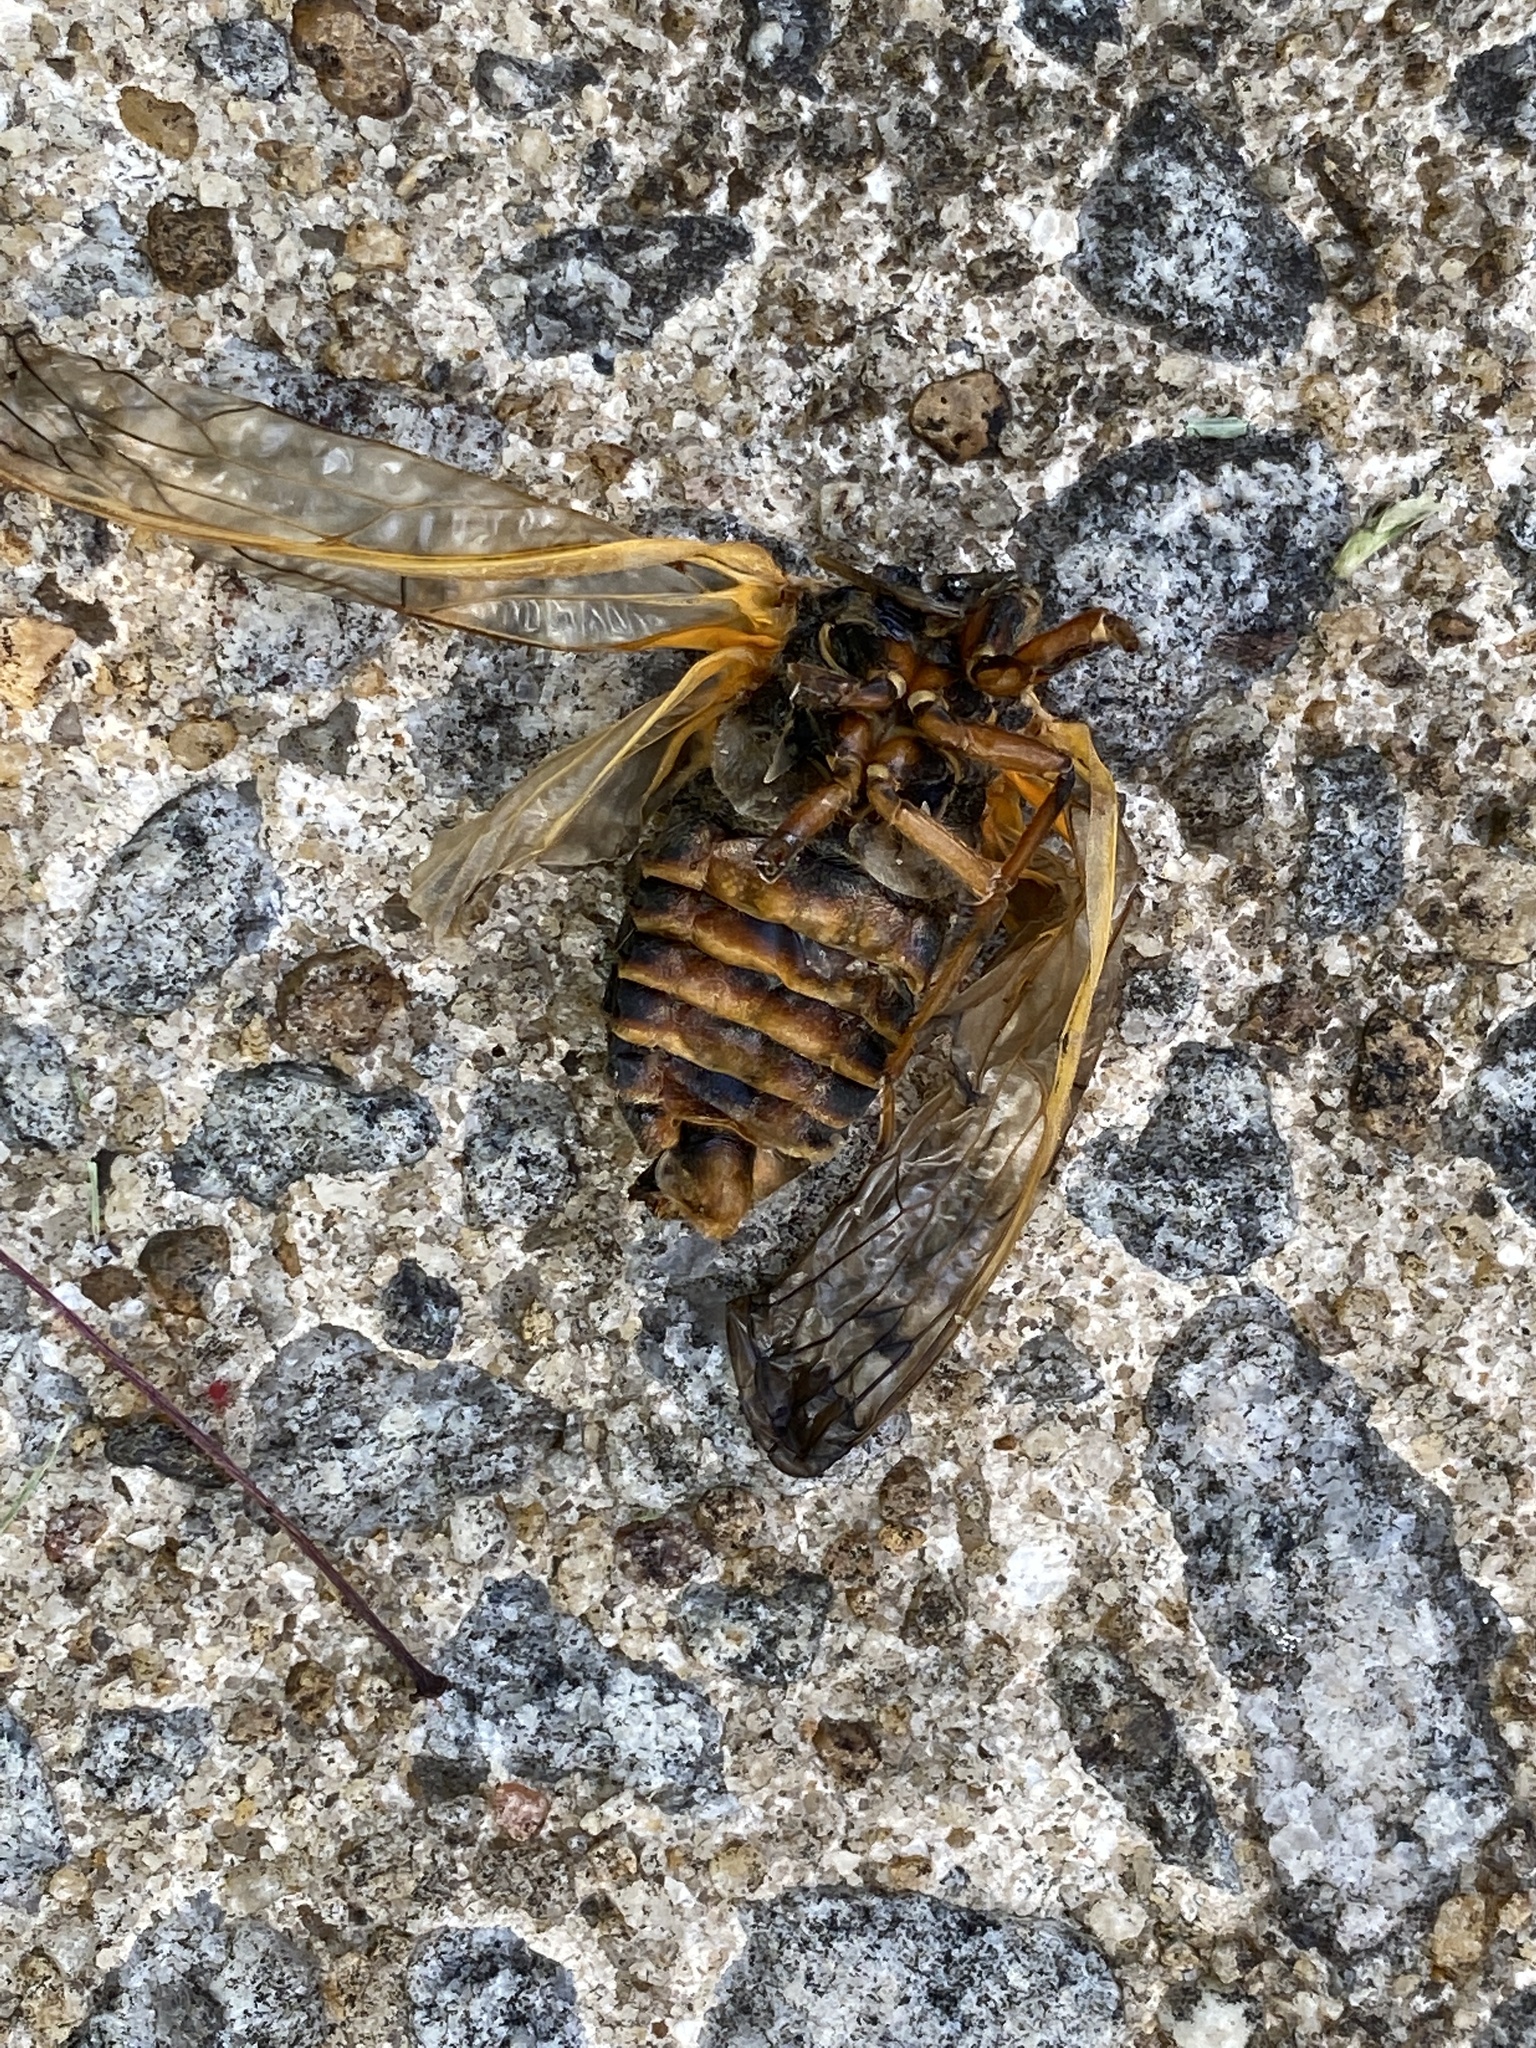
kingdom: Animalia
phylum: Arthropoda
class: Insecta
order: Hemiptera
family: Cicadidae
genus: Magicicada
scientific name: Magicicada septendecim
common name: Periodical cicada
